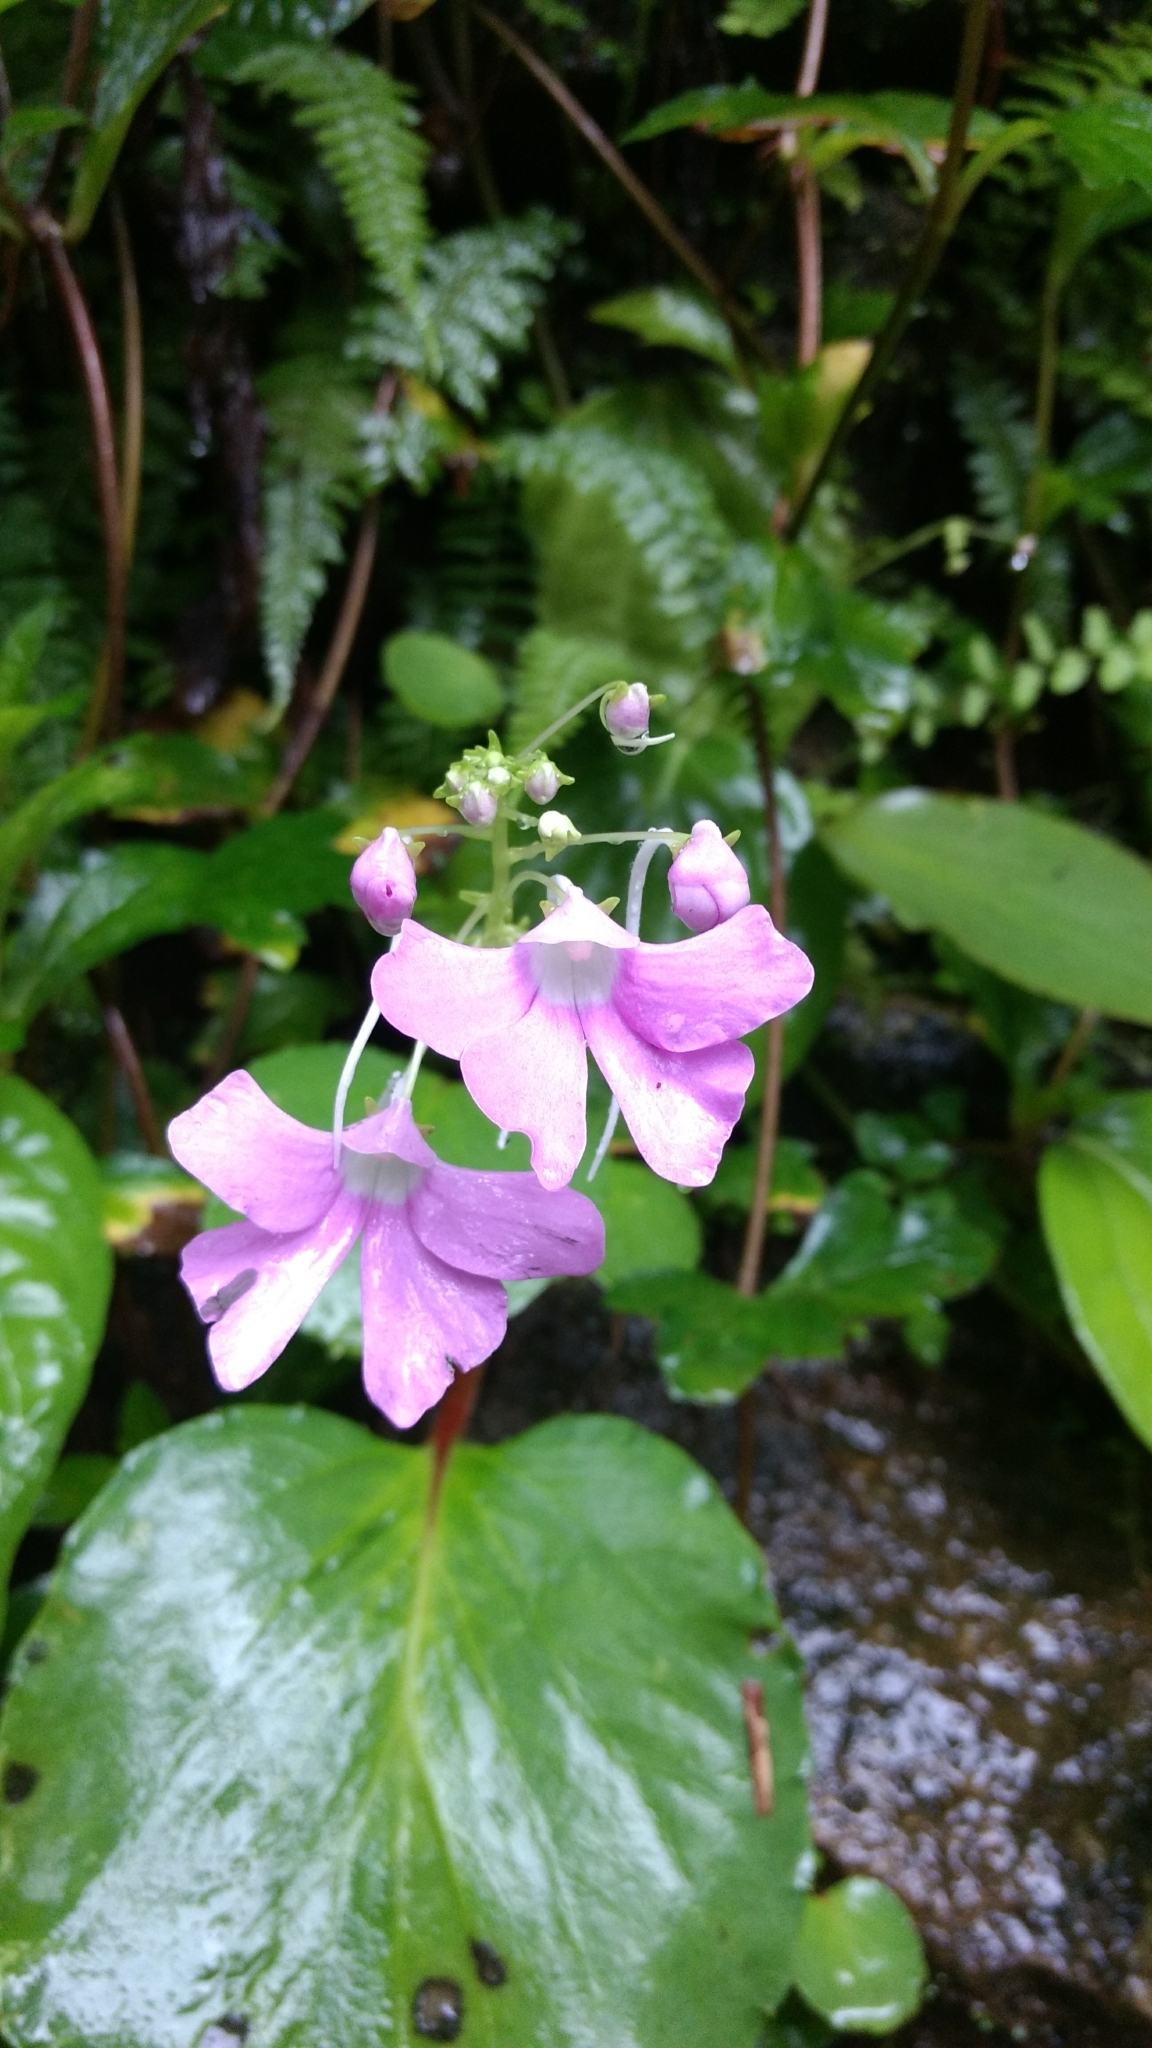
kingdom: Plantae
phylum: Tracheophyta
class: Magnoliopsida
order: Ericales
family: Balsaminaceae
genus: Impatiens
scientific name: Impatiens acaulis
